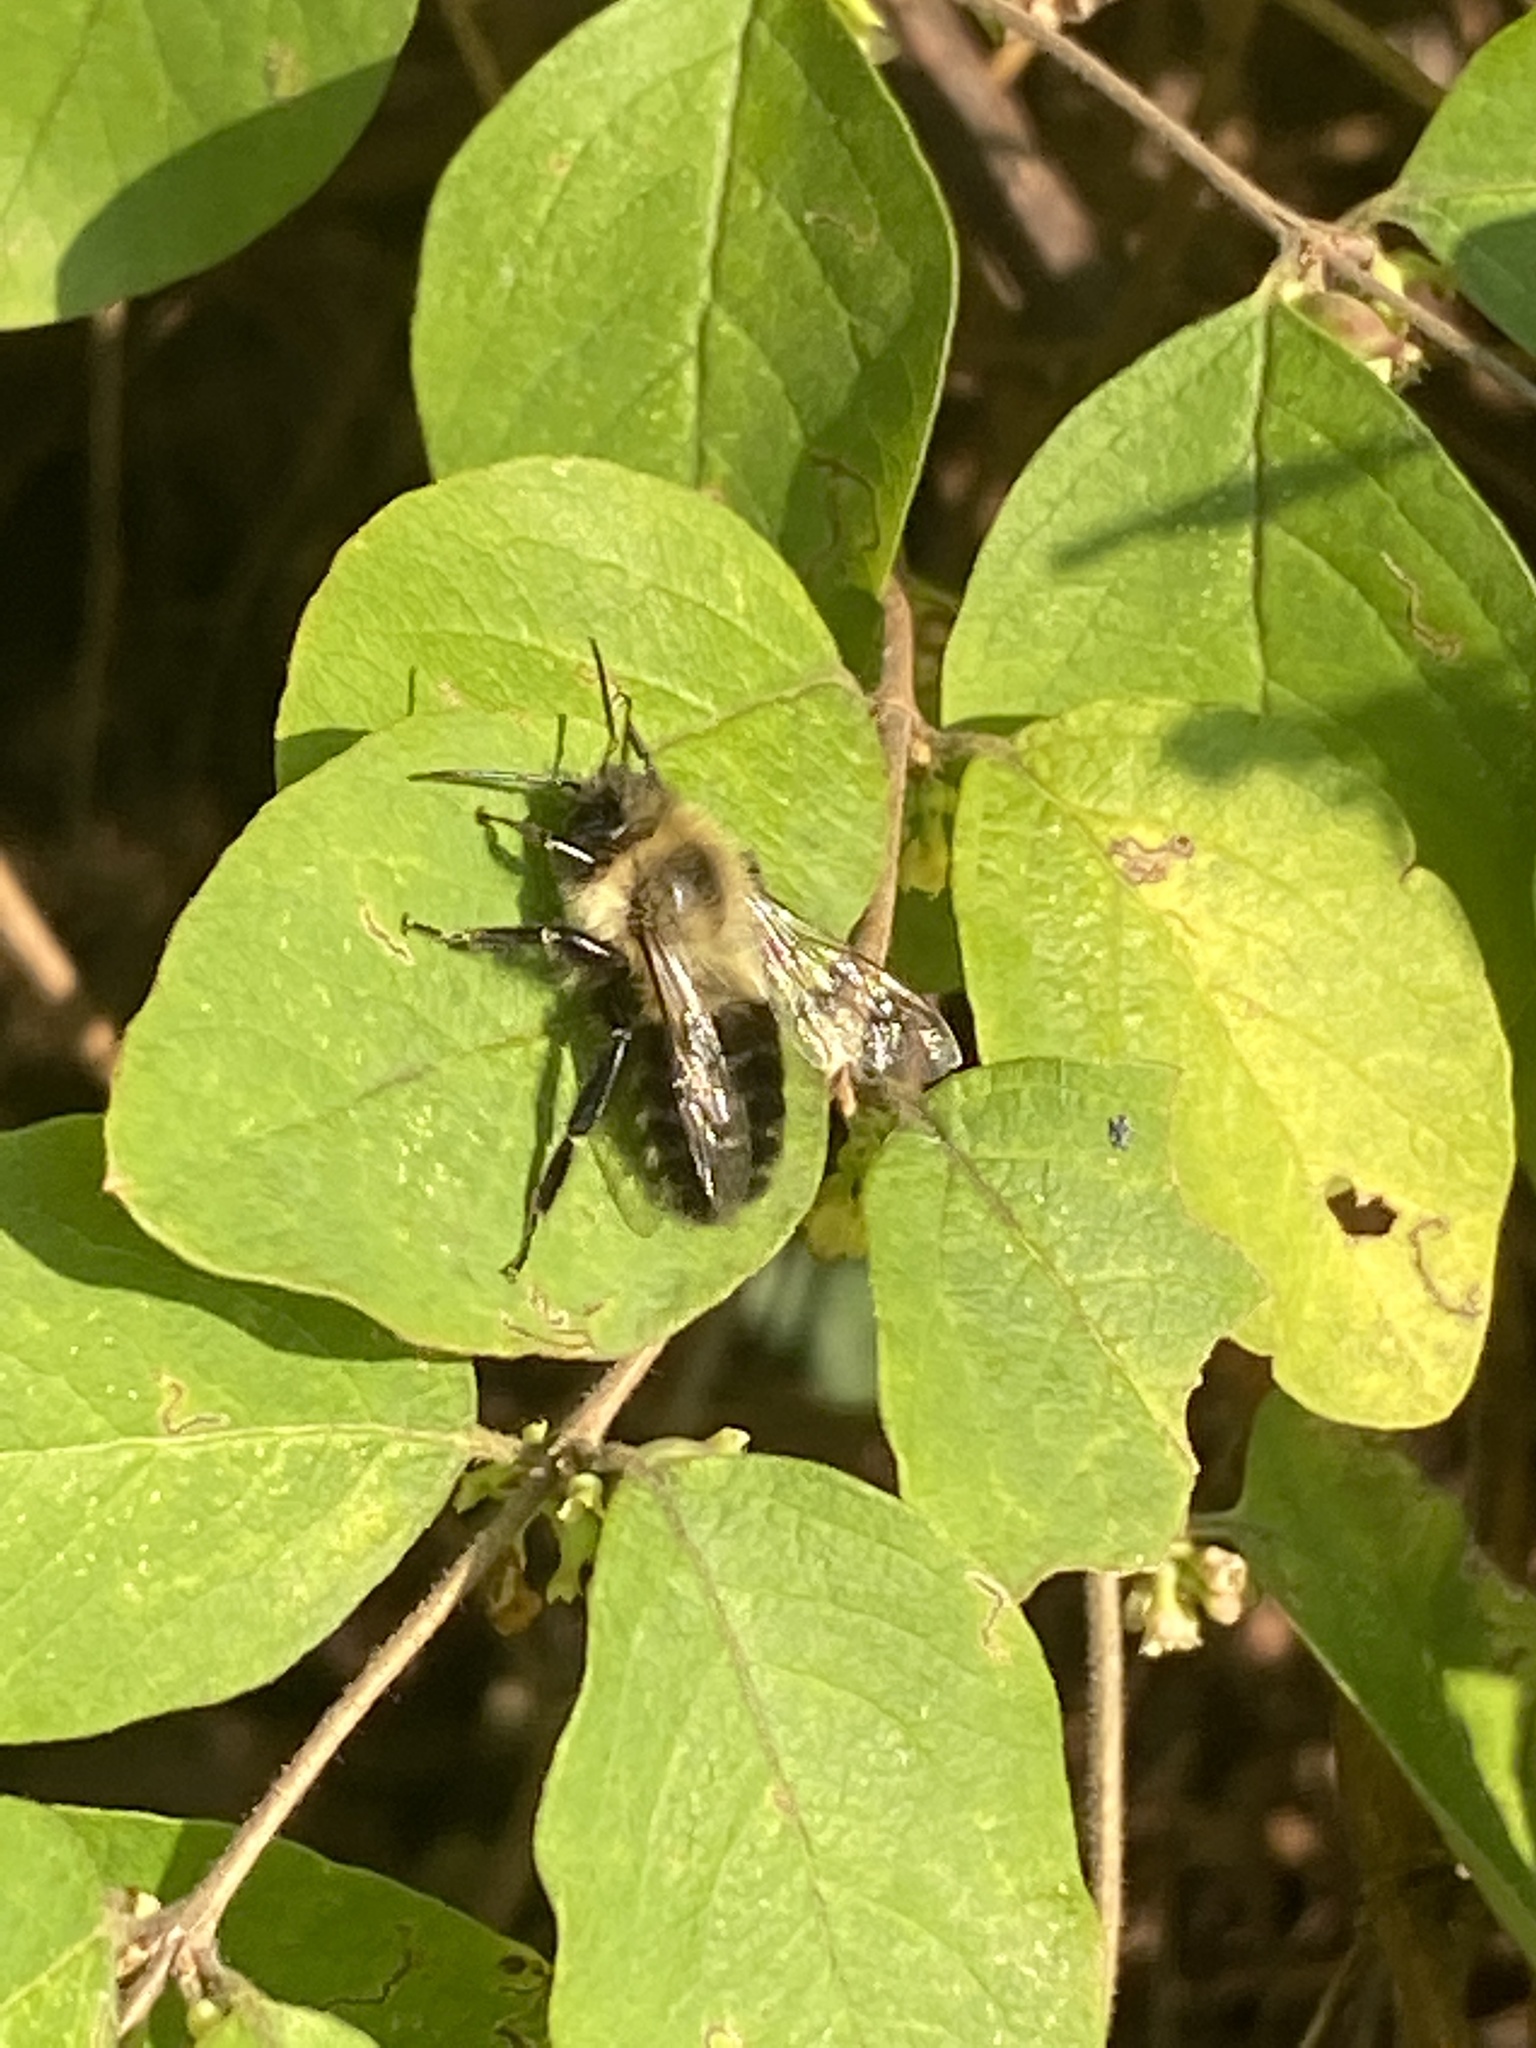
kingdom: Animalia
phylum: Arthropoda
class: Insecta
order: Hymenoptera
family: Apidae
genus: Bombus
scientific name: Bombus impatiens
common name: Common eastern bumble bee
